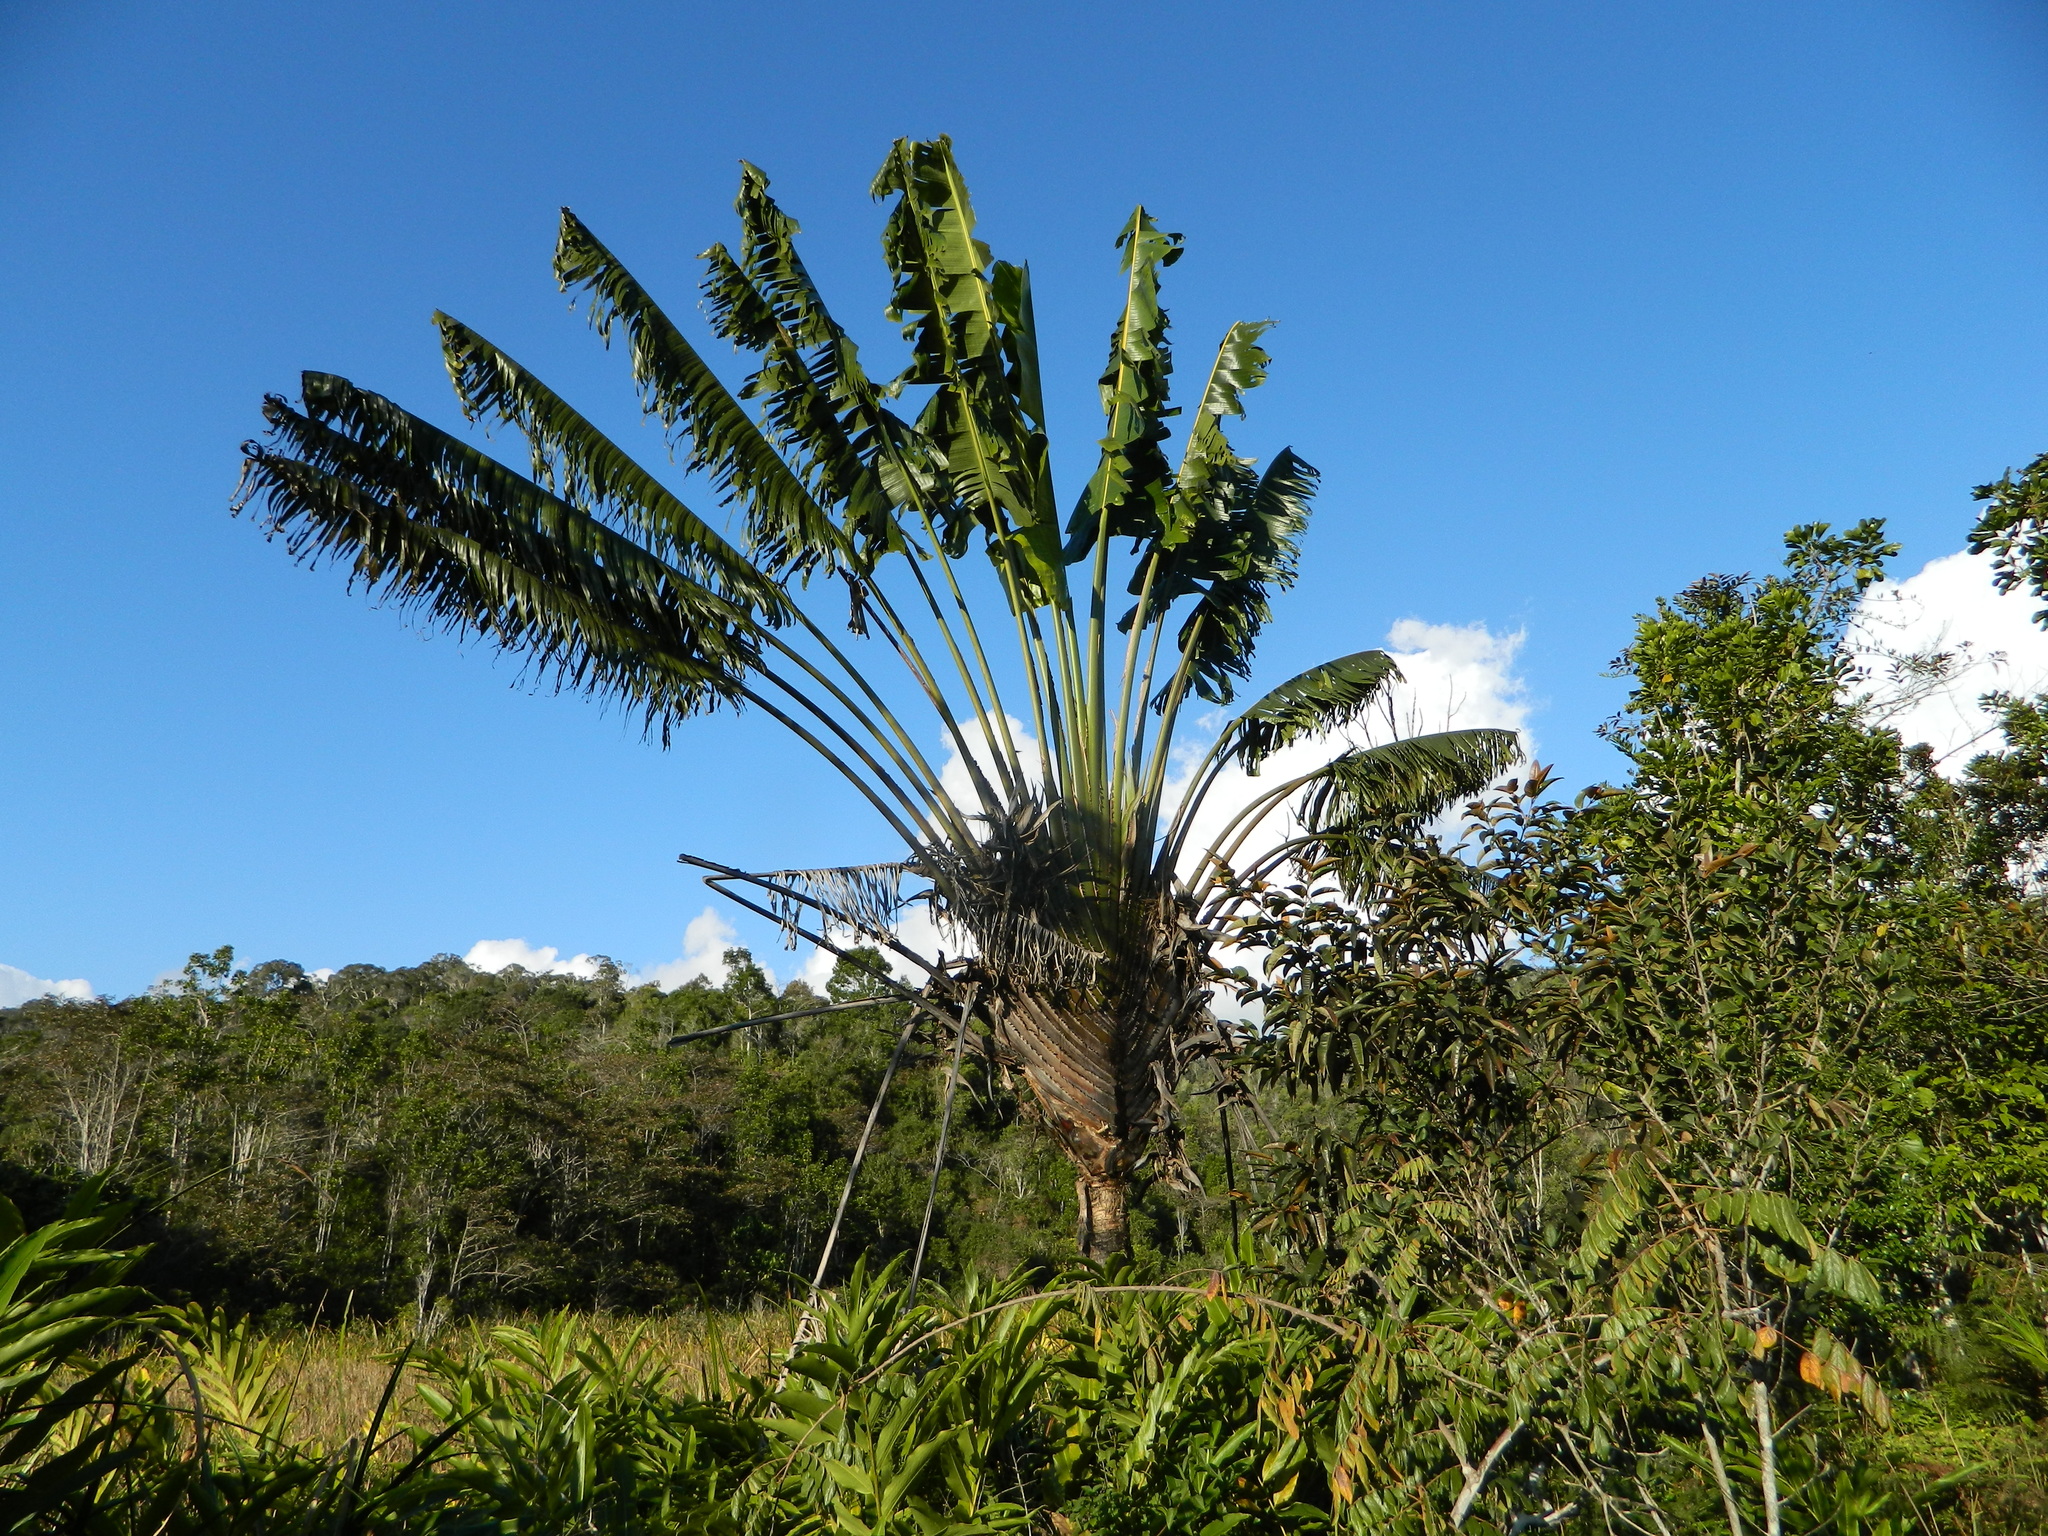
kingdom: Plantae
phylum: Tracheophyta
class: Liliopsida
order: Zingiberales
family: Strelitziaceae
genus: Ravenala
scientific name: Ravenala hladikorum
